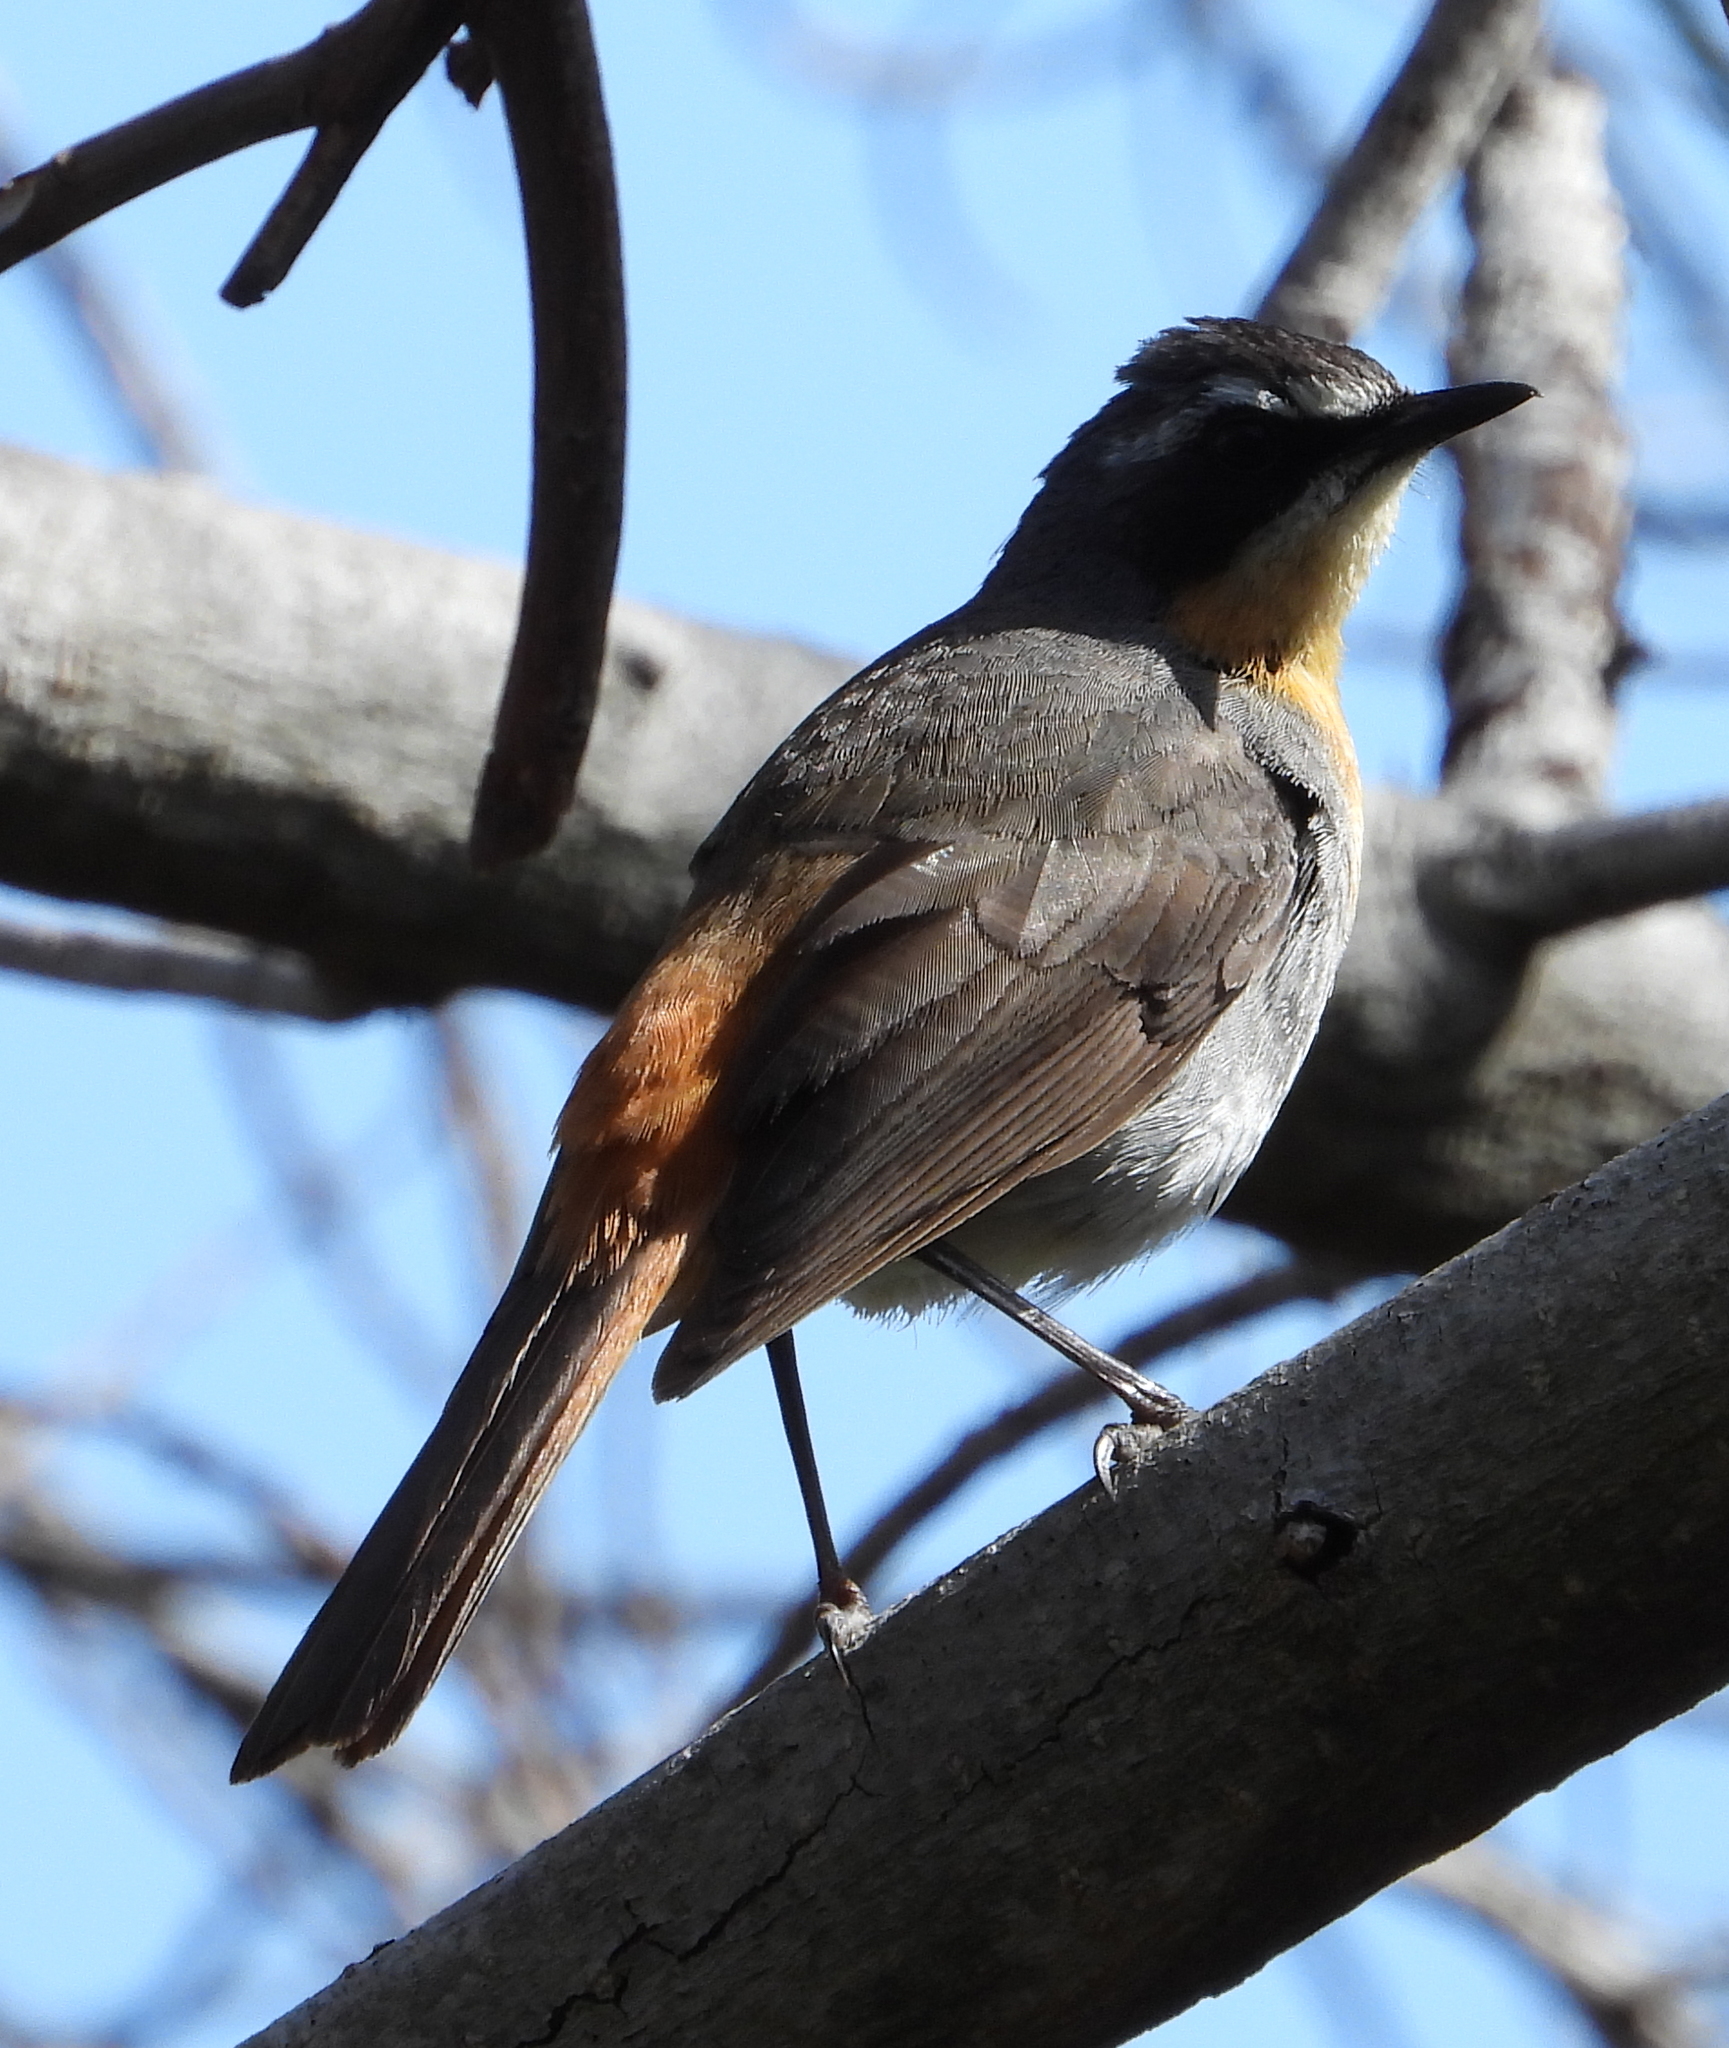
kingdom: Animalia
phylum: Chordata
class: Aves
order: Passeriformes
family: Muscicapidae
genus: Cossypha
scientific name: Cossypha caffra
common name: Cape robin-chat
